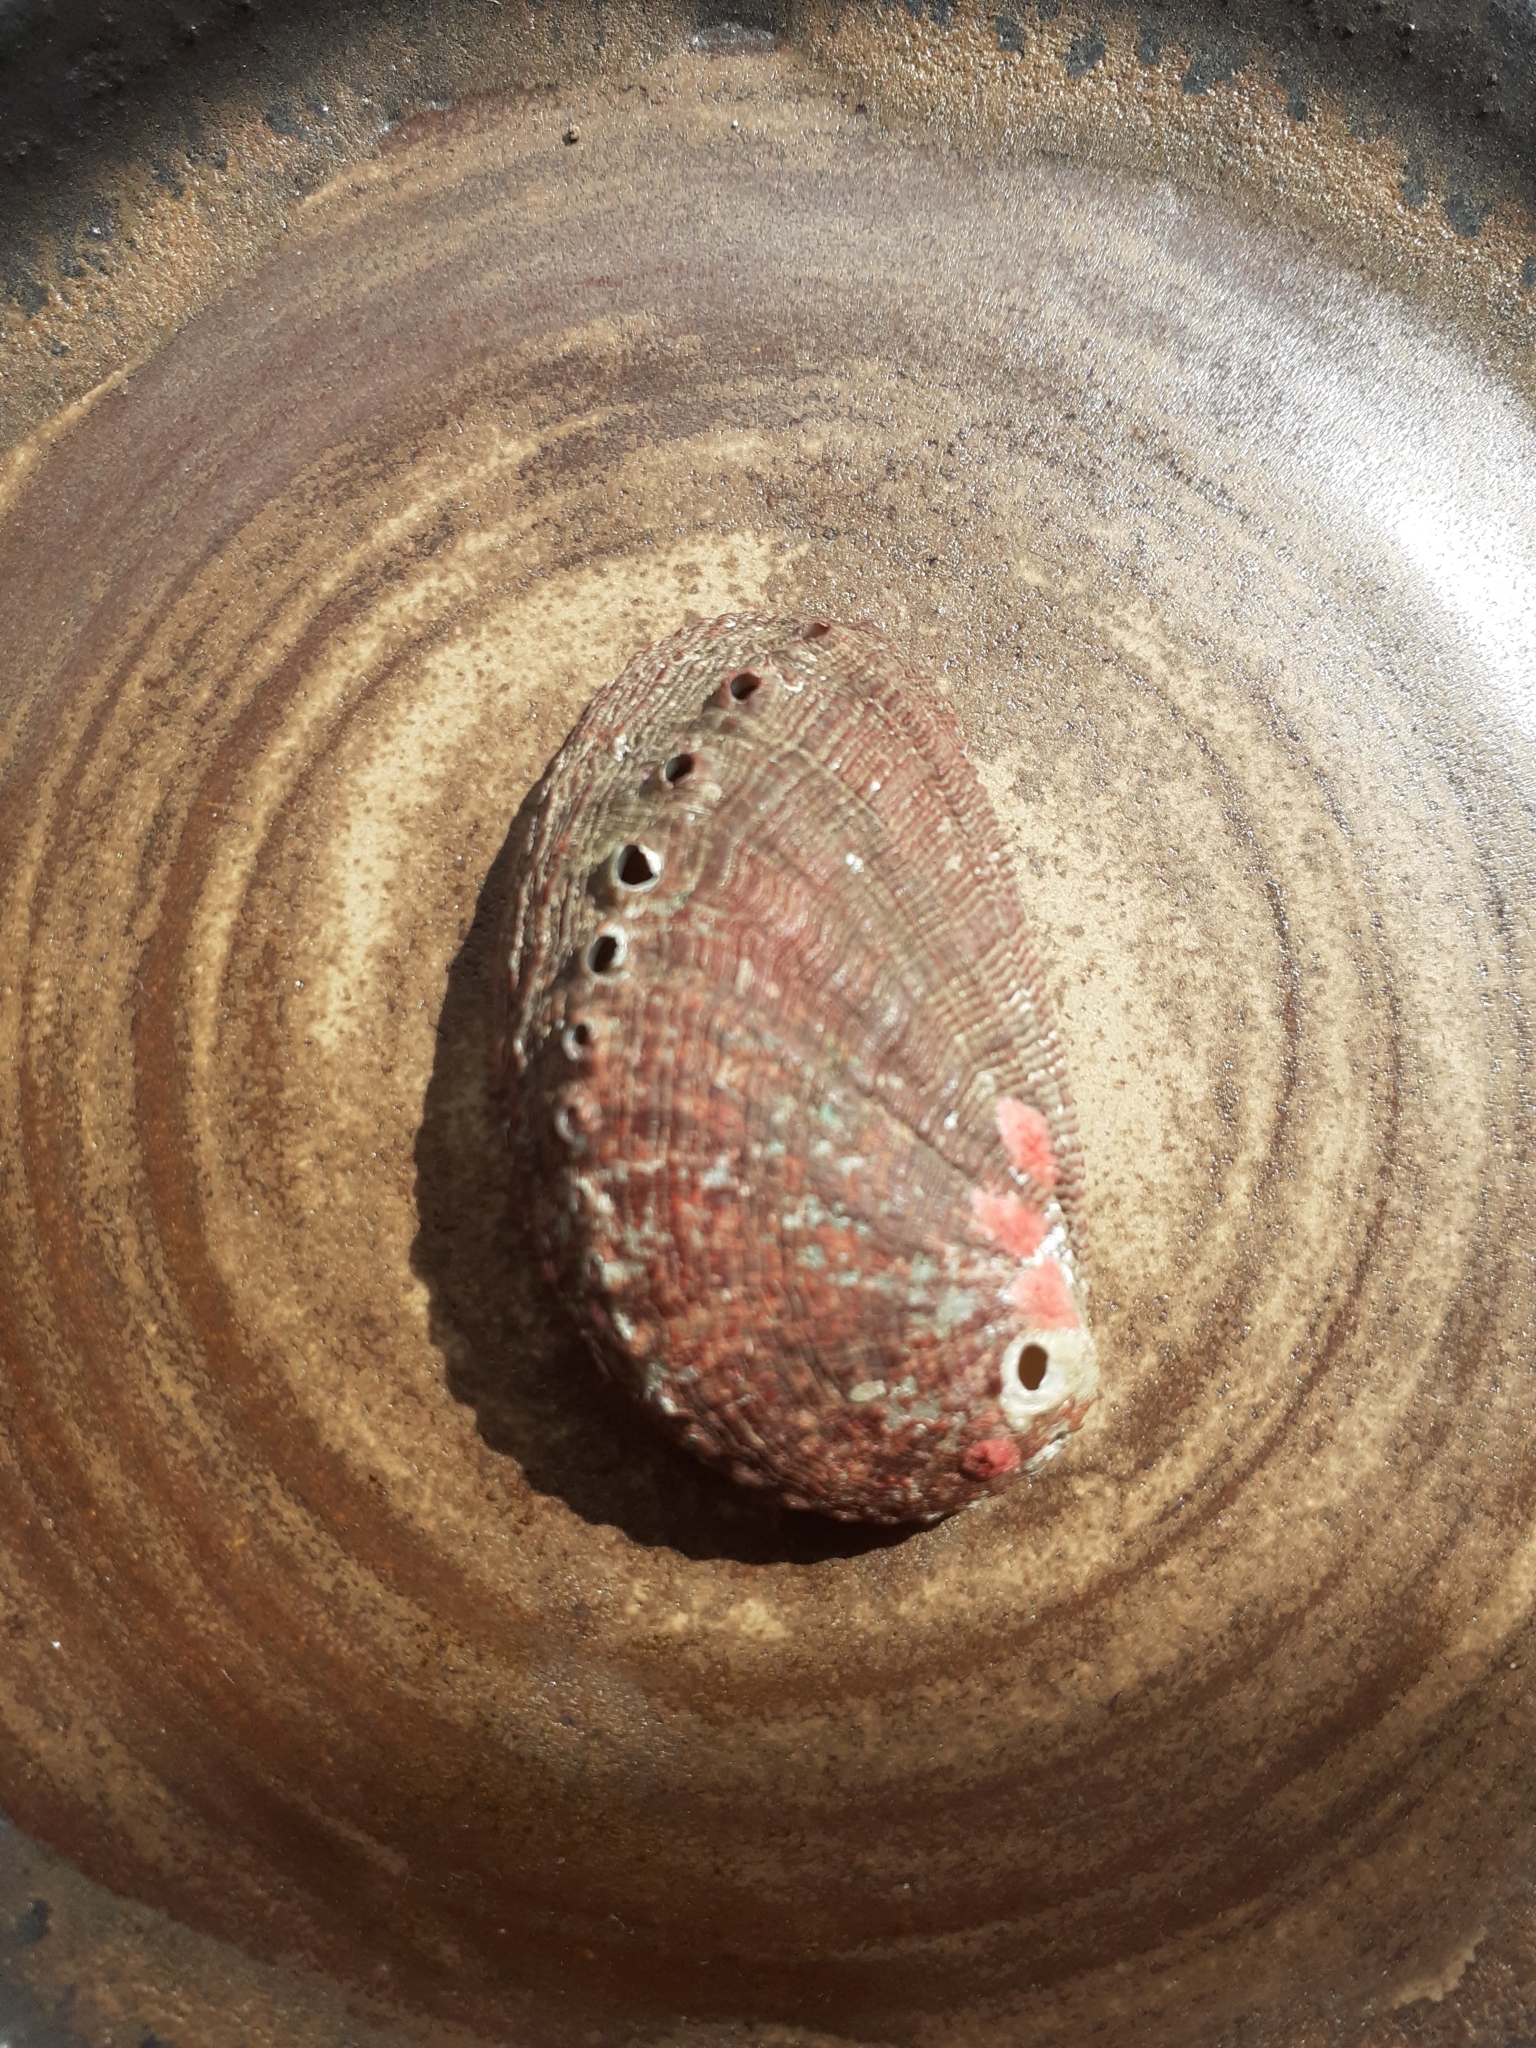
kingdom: Animalia
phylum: Mollusca
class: Gastropoda
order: Lepetellida
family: Haliotidae
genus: Haliotis
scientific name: Haliotis tuberculata
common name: Green ormer
